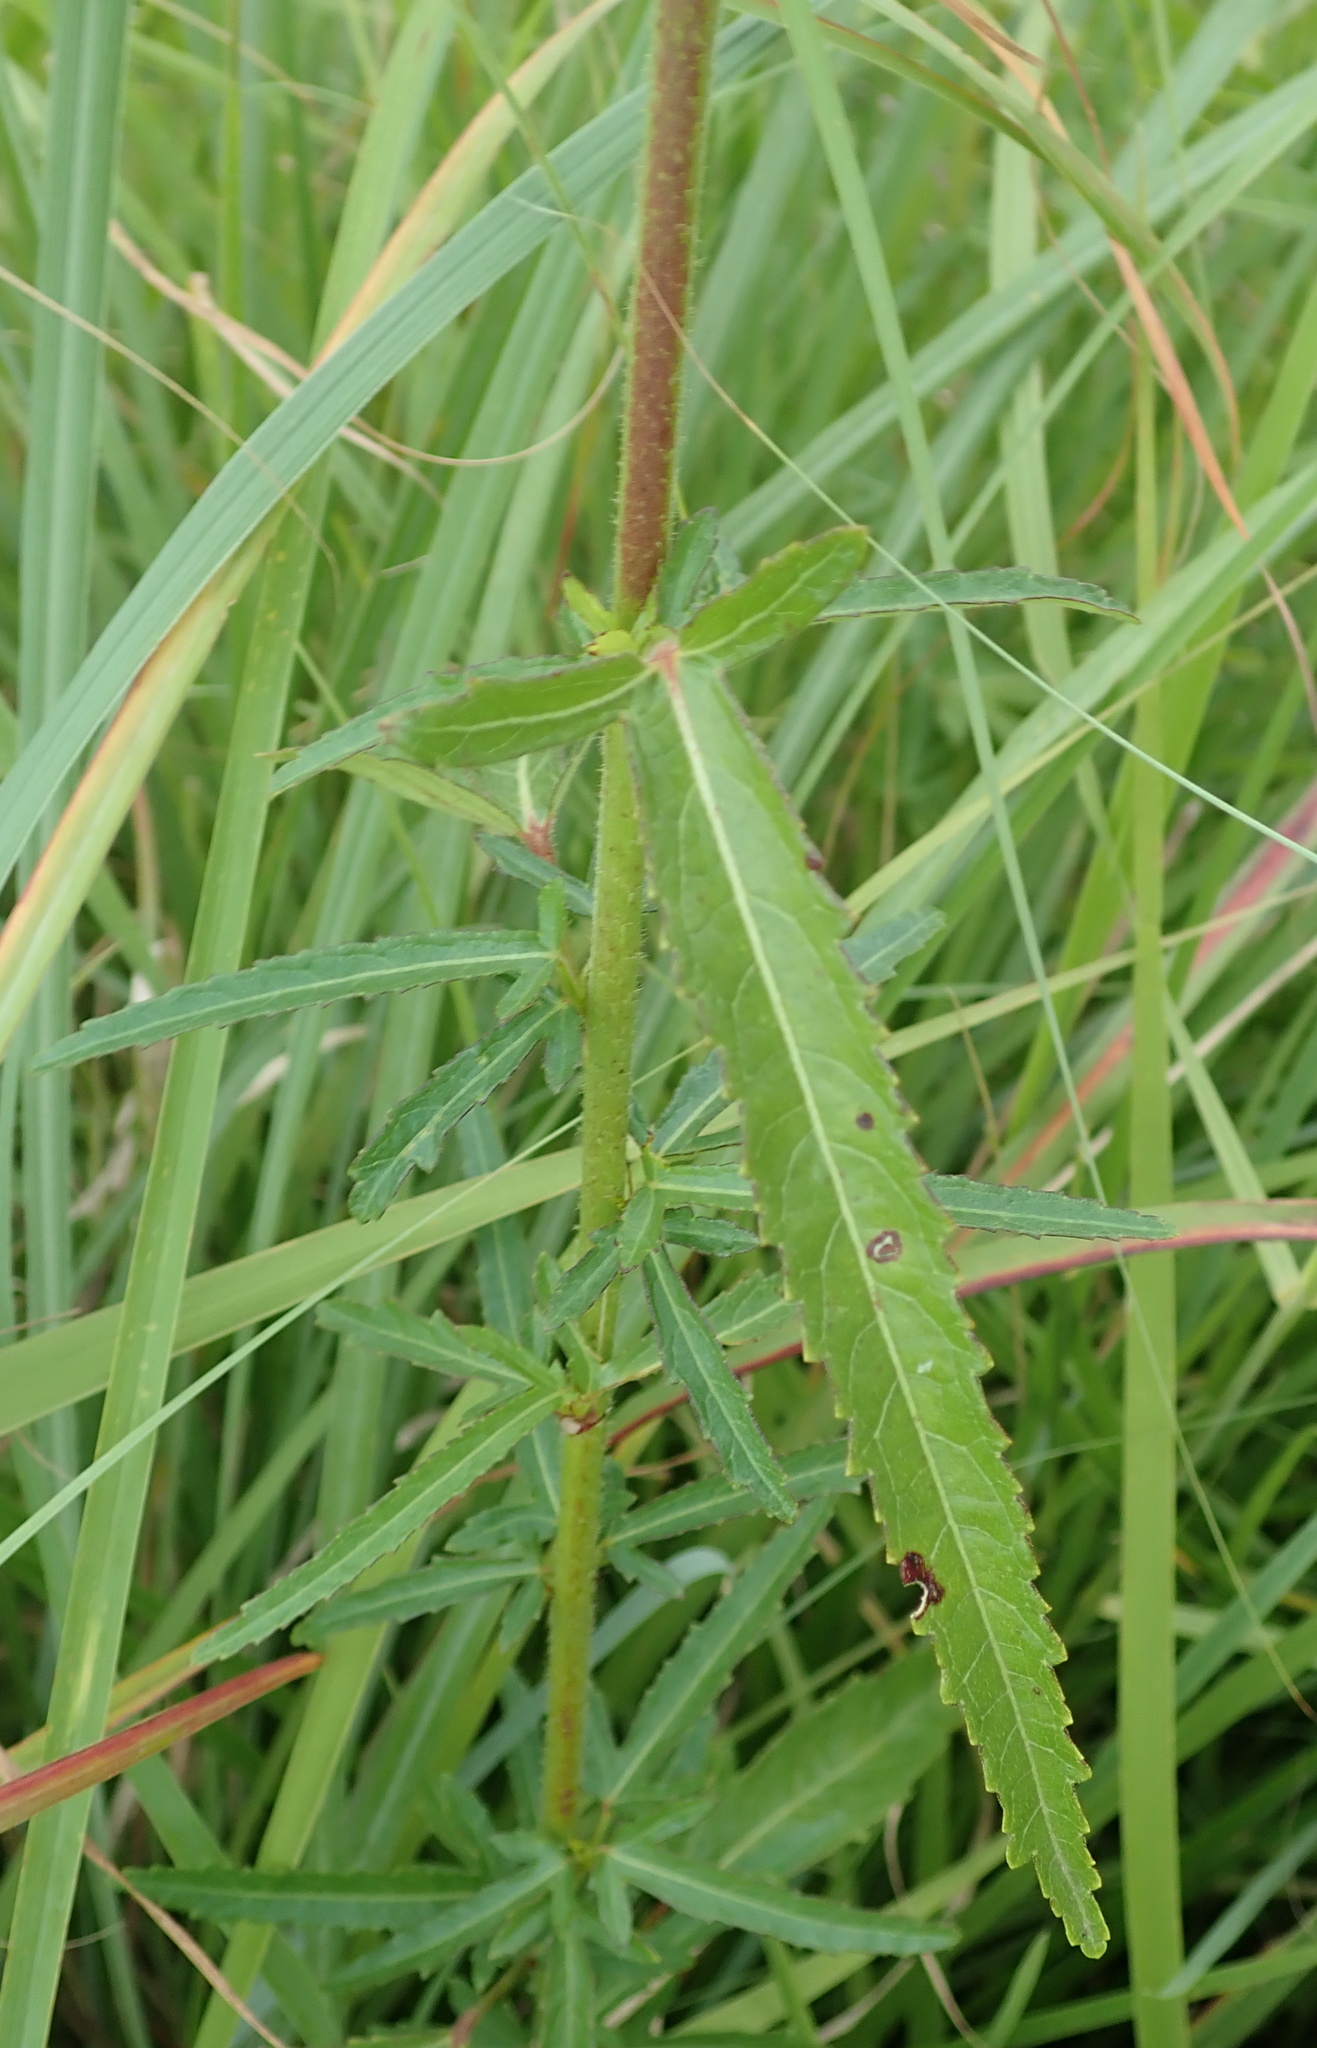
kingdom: Plantae
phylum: Tracheophyta
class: Magnoliopsida
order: Malvales
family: Malvaceae
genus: Hibiscus
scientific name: Hibiscus trionum
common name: Bladder ketmia
